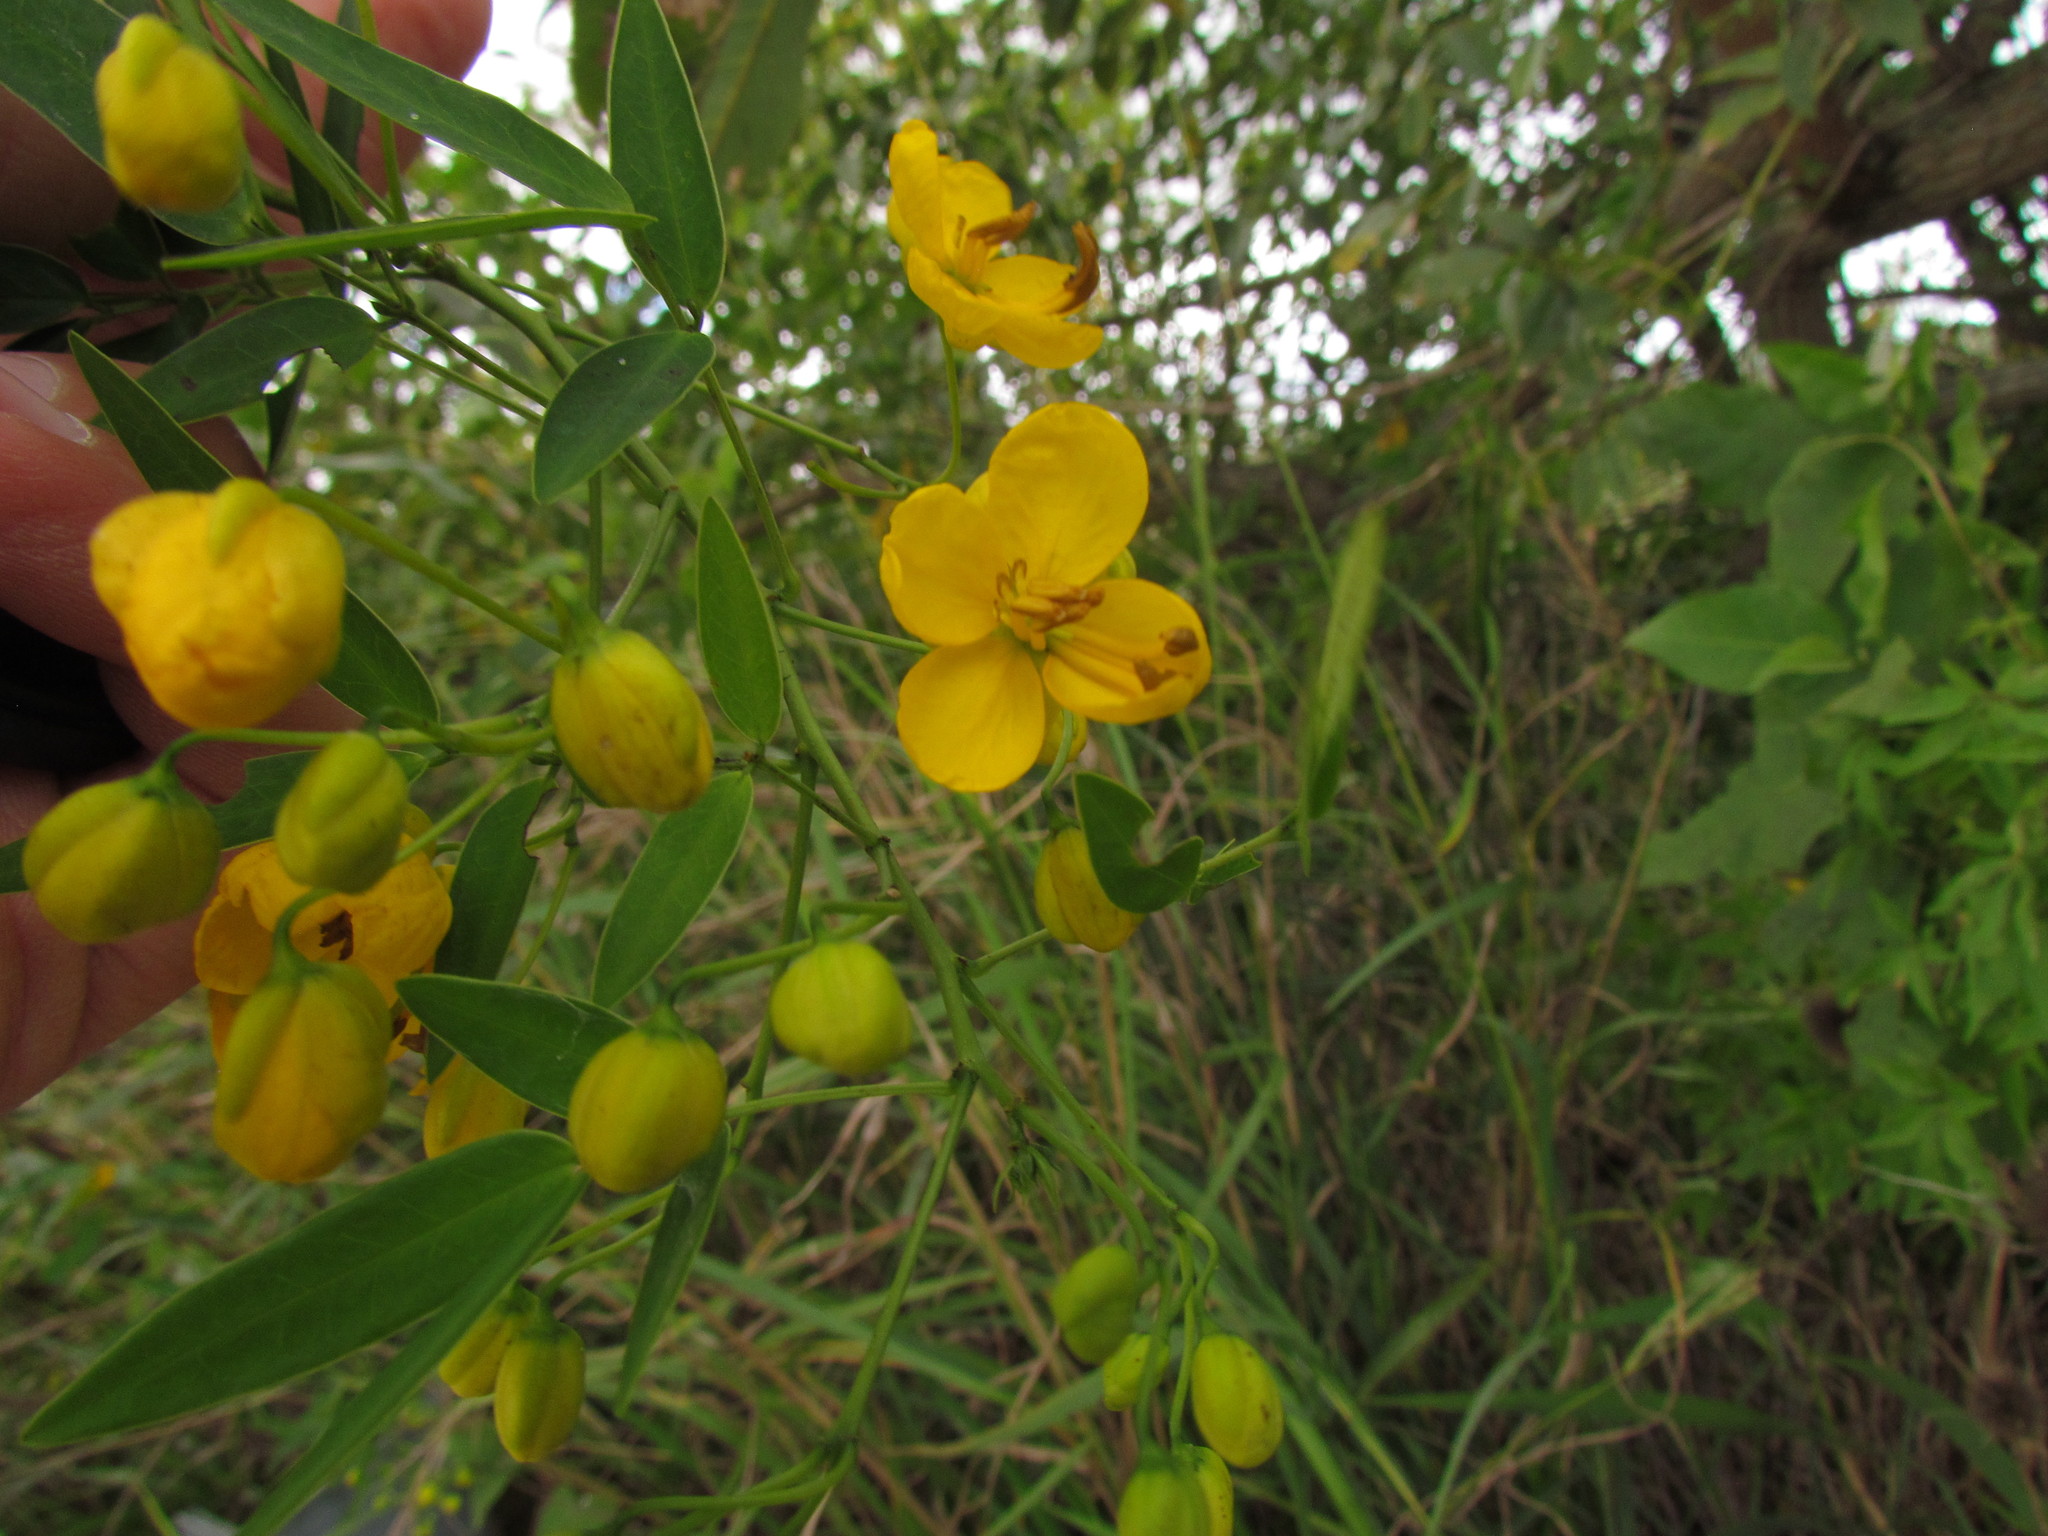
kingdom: Plantae
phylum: Tracheophyta
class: Magnoliopsida
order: Fabales
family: Fabaceae
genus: Senna
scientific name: Senna corymbosa
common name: Argentine senna
